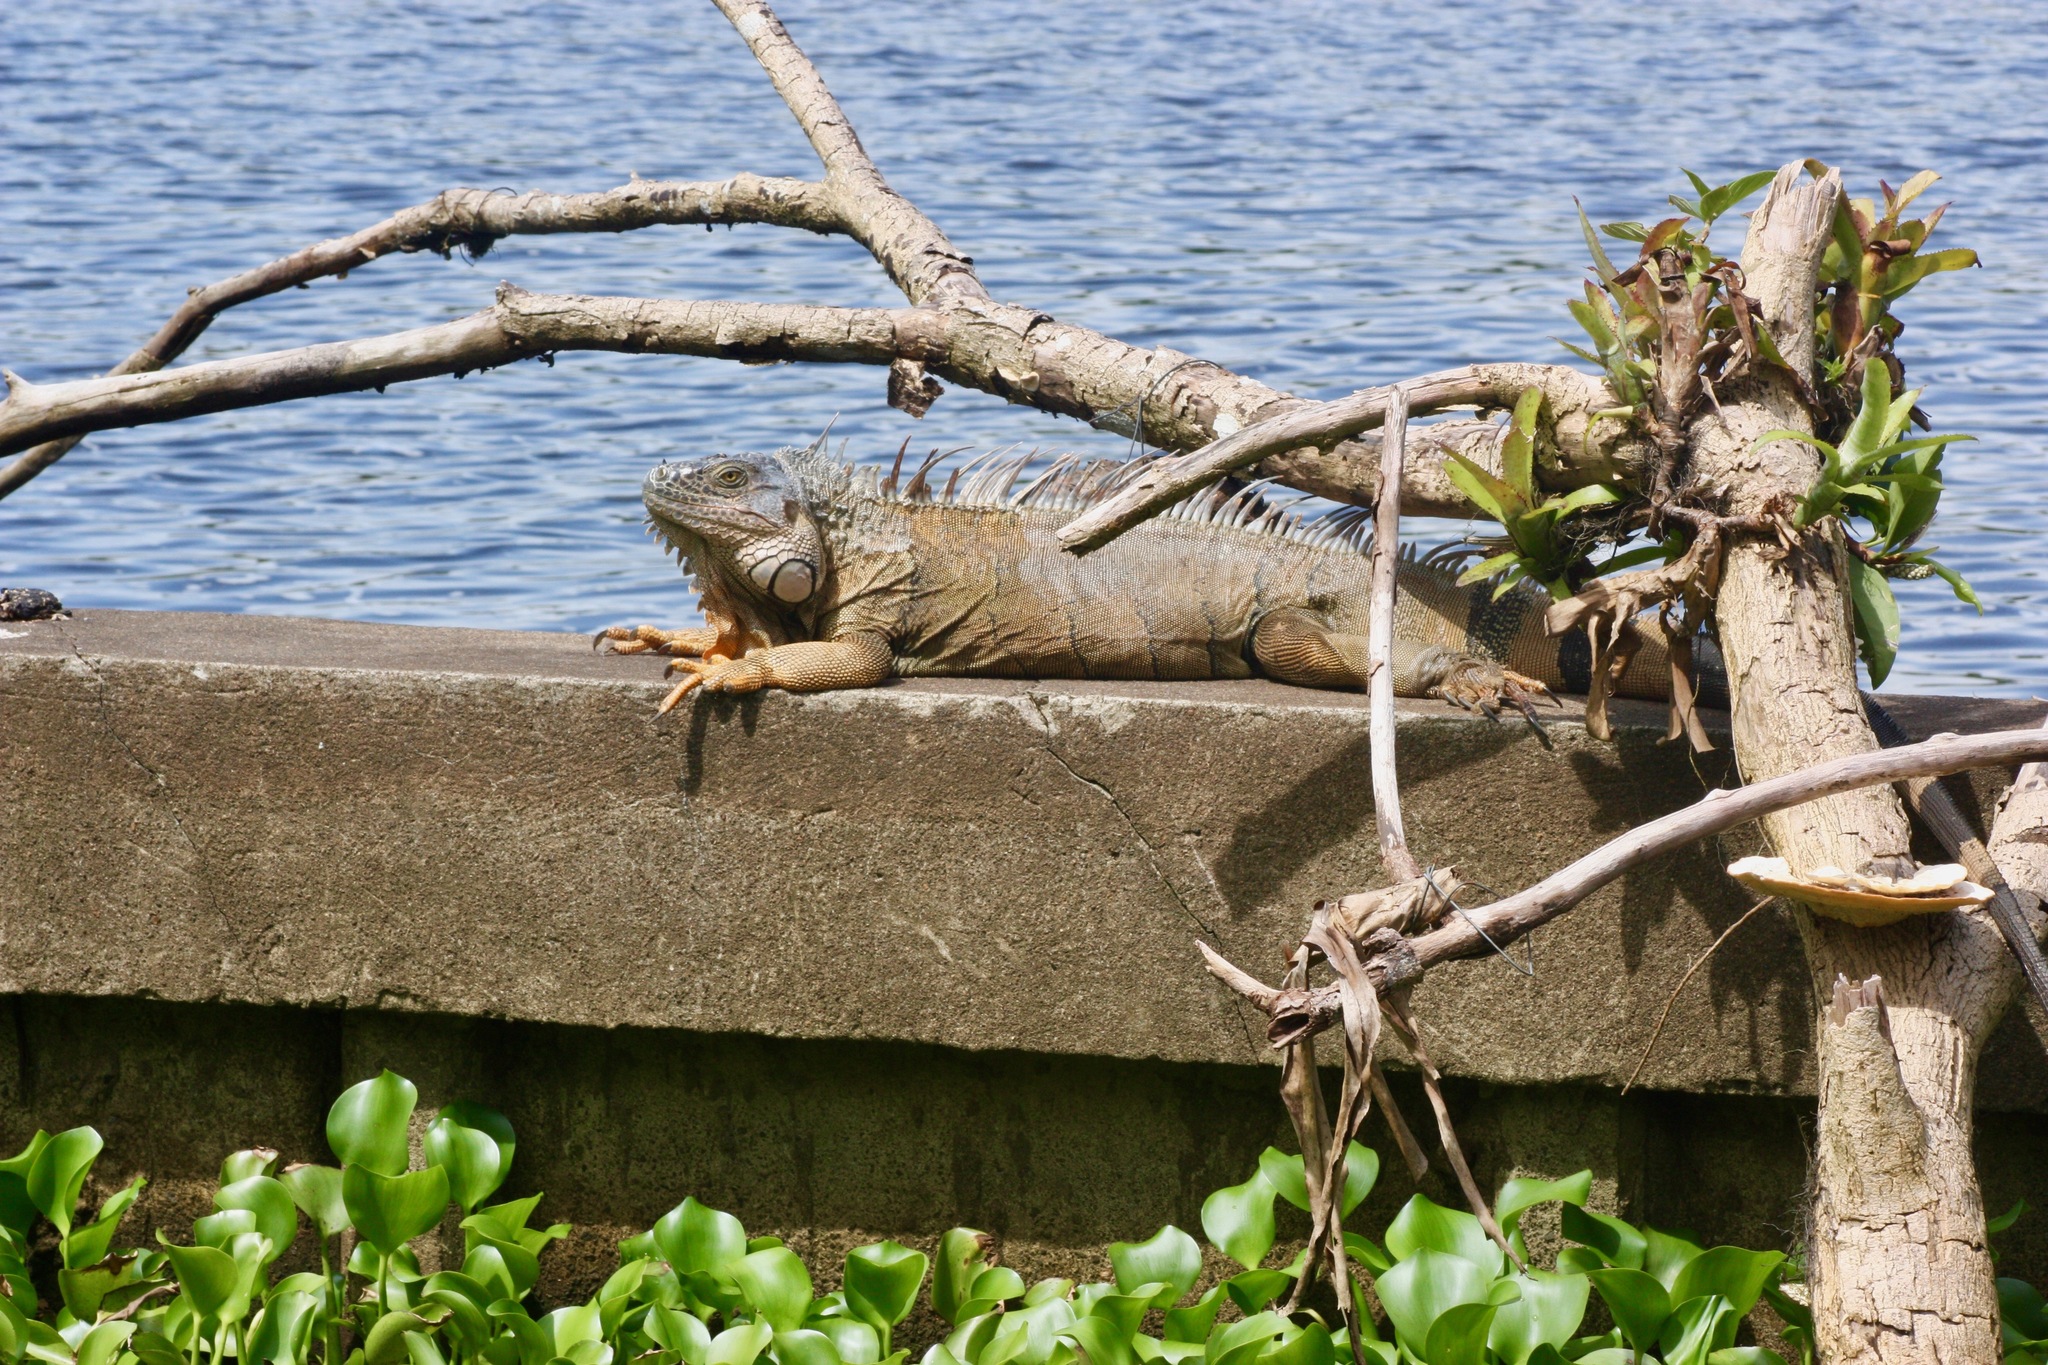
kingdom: Animalia
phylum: Chordata
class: Squamata
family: Iguanidae
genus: Iguana
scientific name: Iguana iguana
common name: Green iguana
